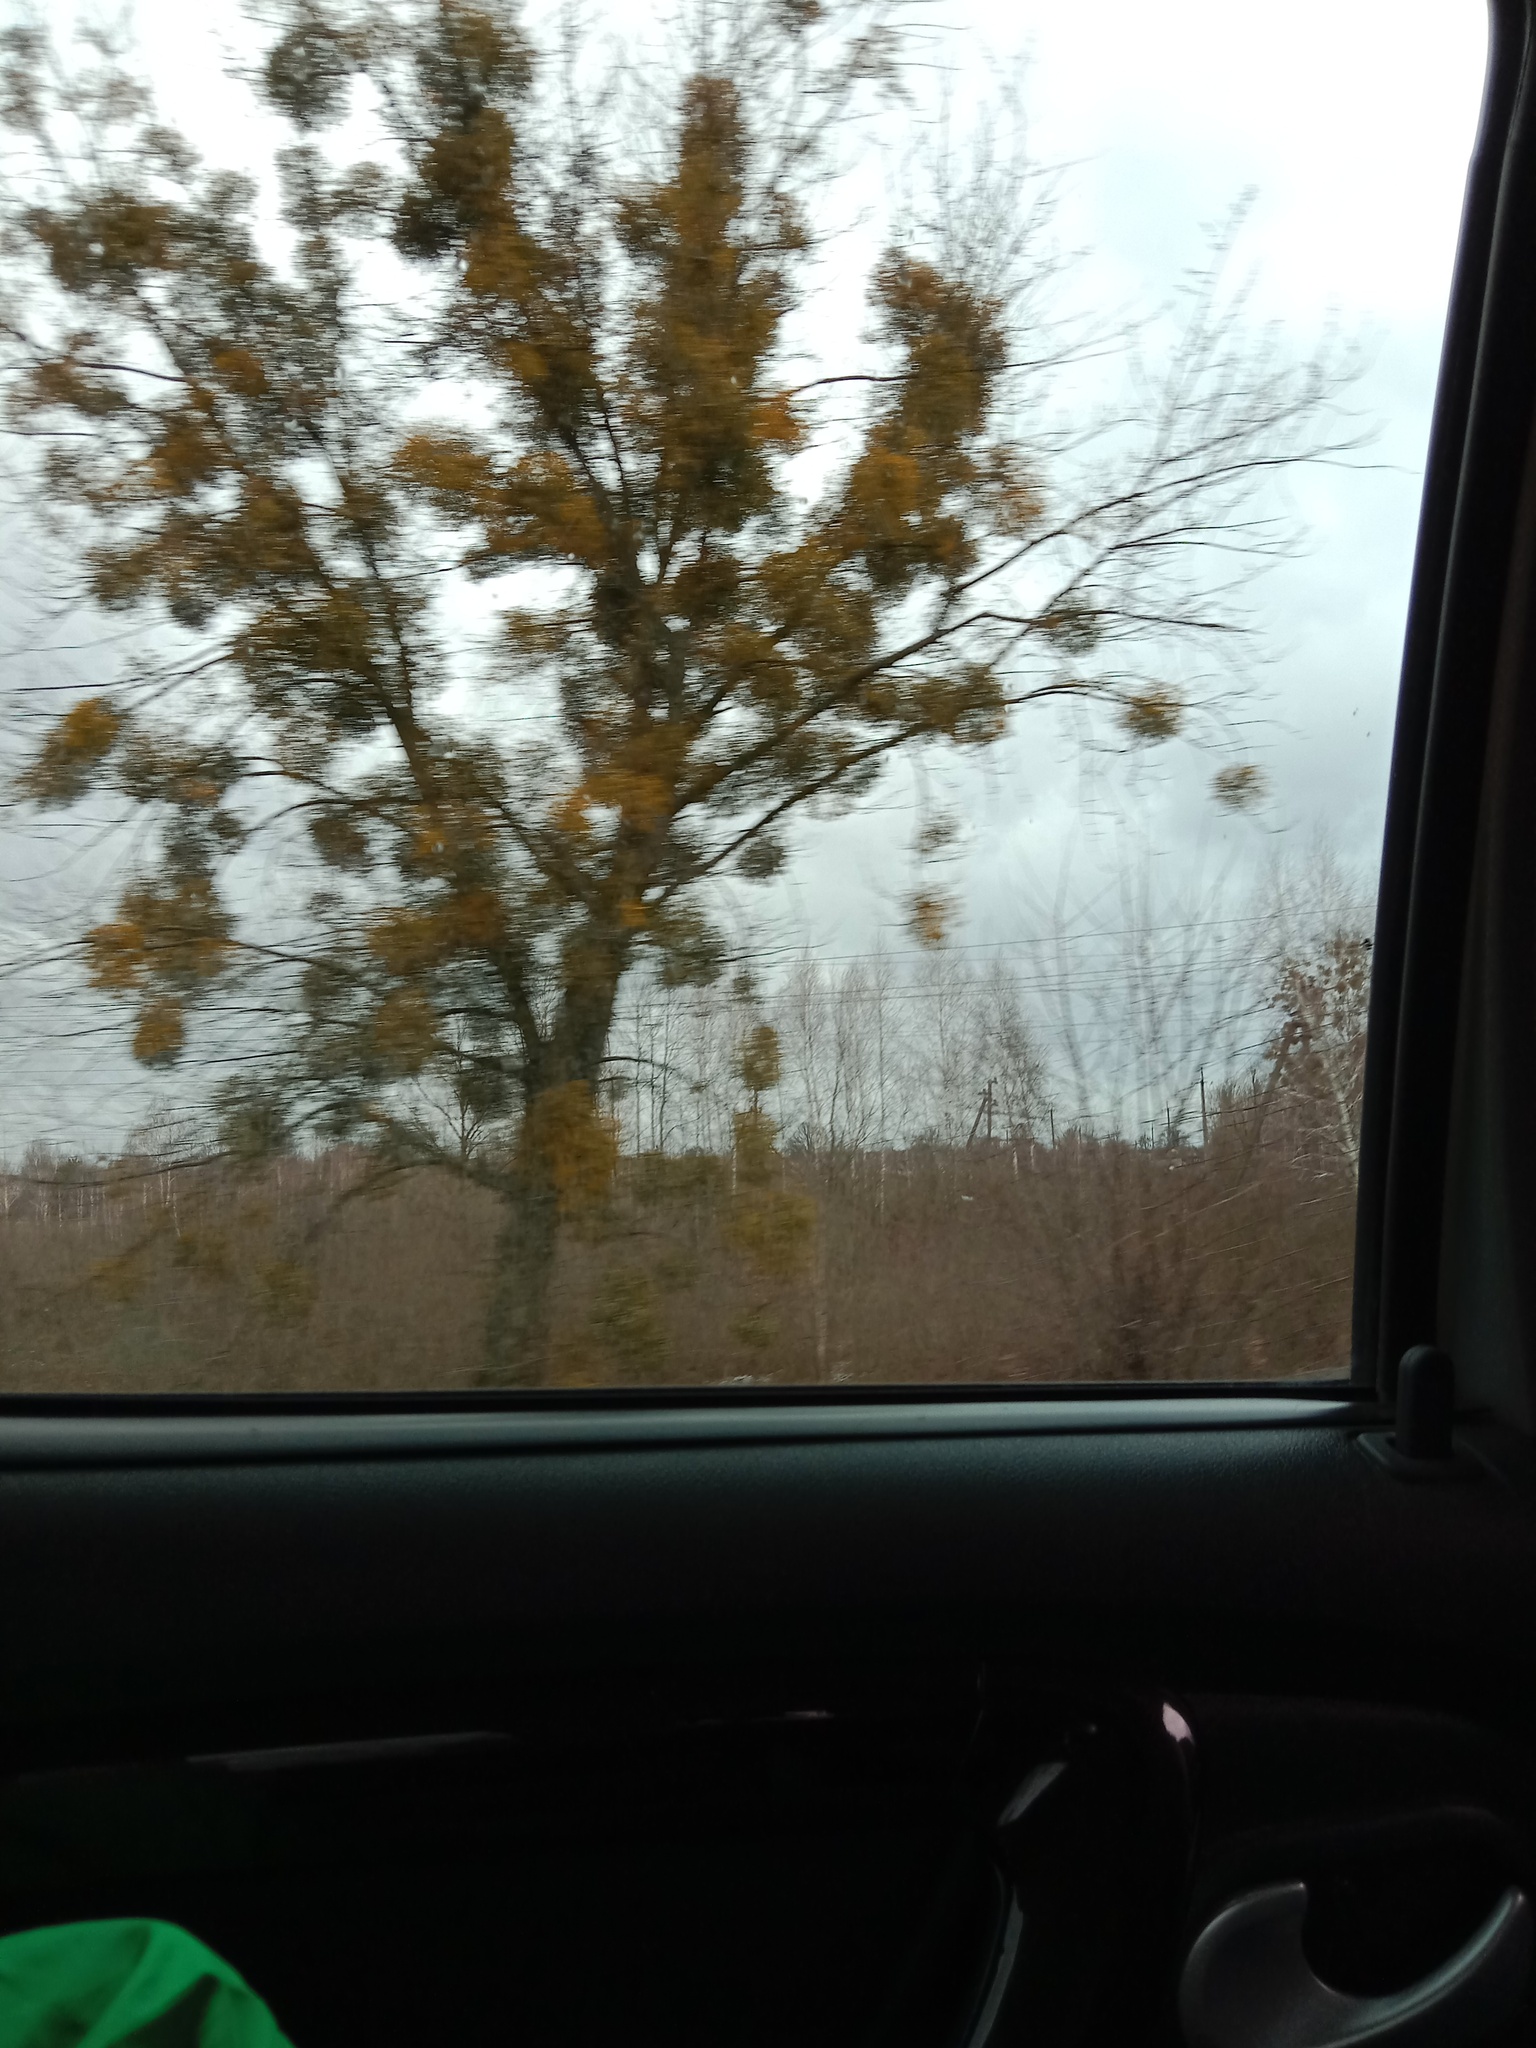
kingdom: Plantae
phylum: Tracheophyta
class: Magnoliopsida
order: Santalales
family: Viscaceae
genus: Viscum
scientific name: Viscum album
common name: Mistletoe
